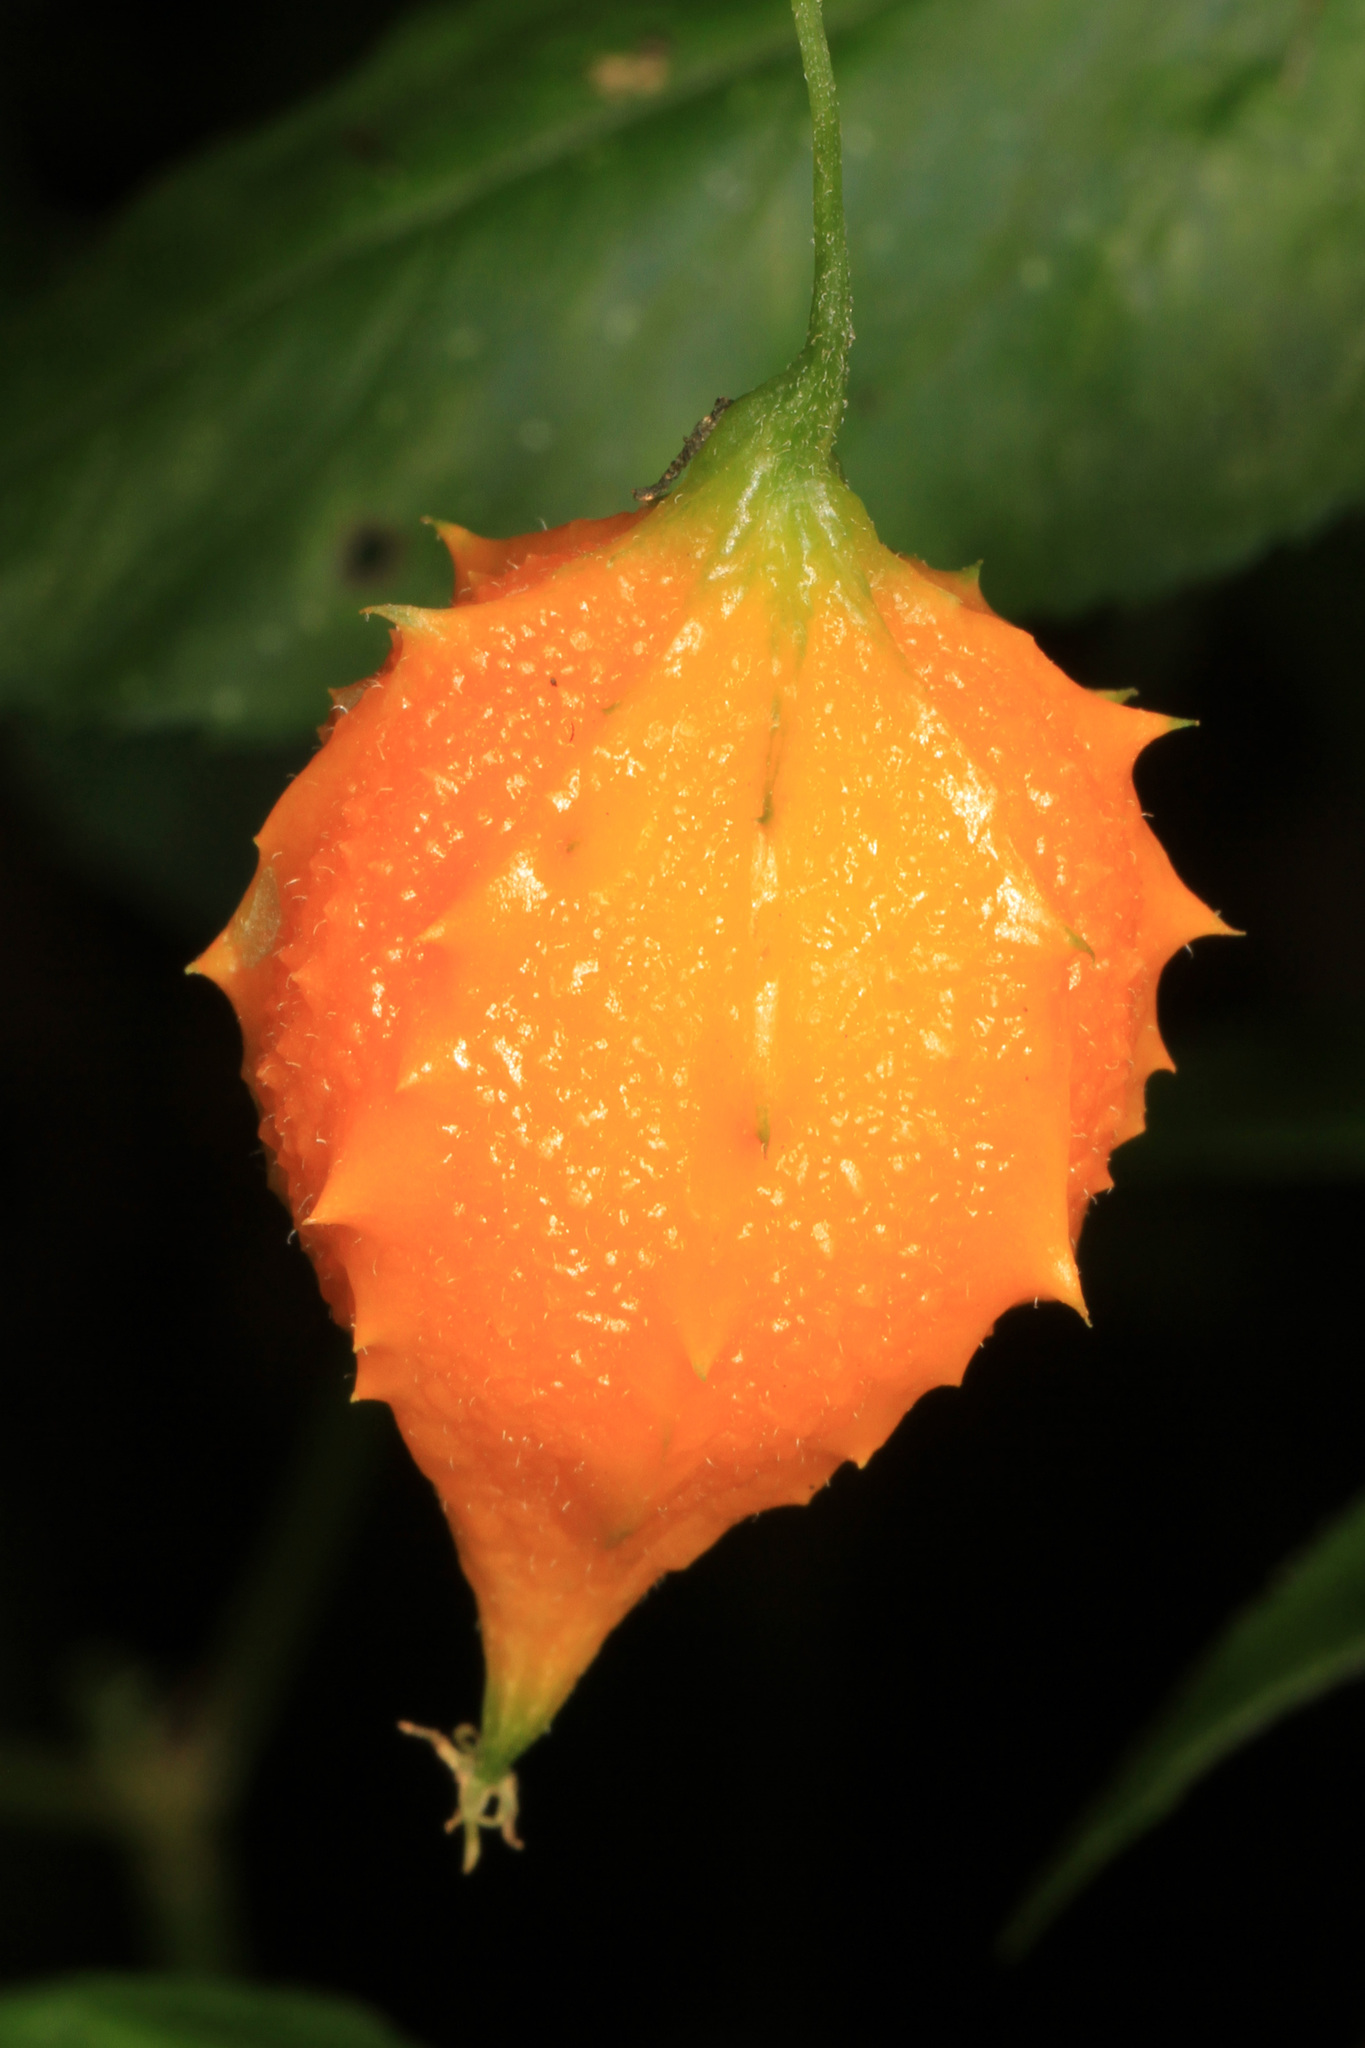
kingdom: Plantae
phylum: Tracheophyta
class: Magnoliopsida
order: Cucurbitales
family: Cucurbitaceae
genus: Momordica
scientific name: Momordica charantia
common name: Balsampear
